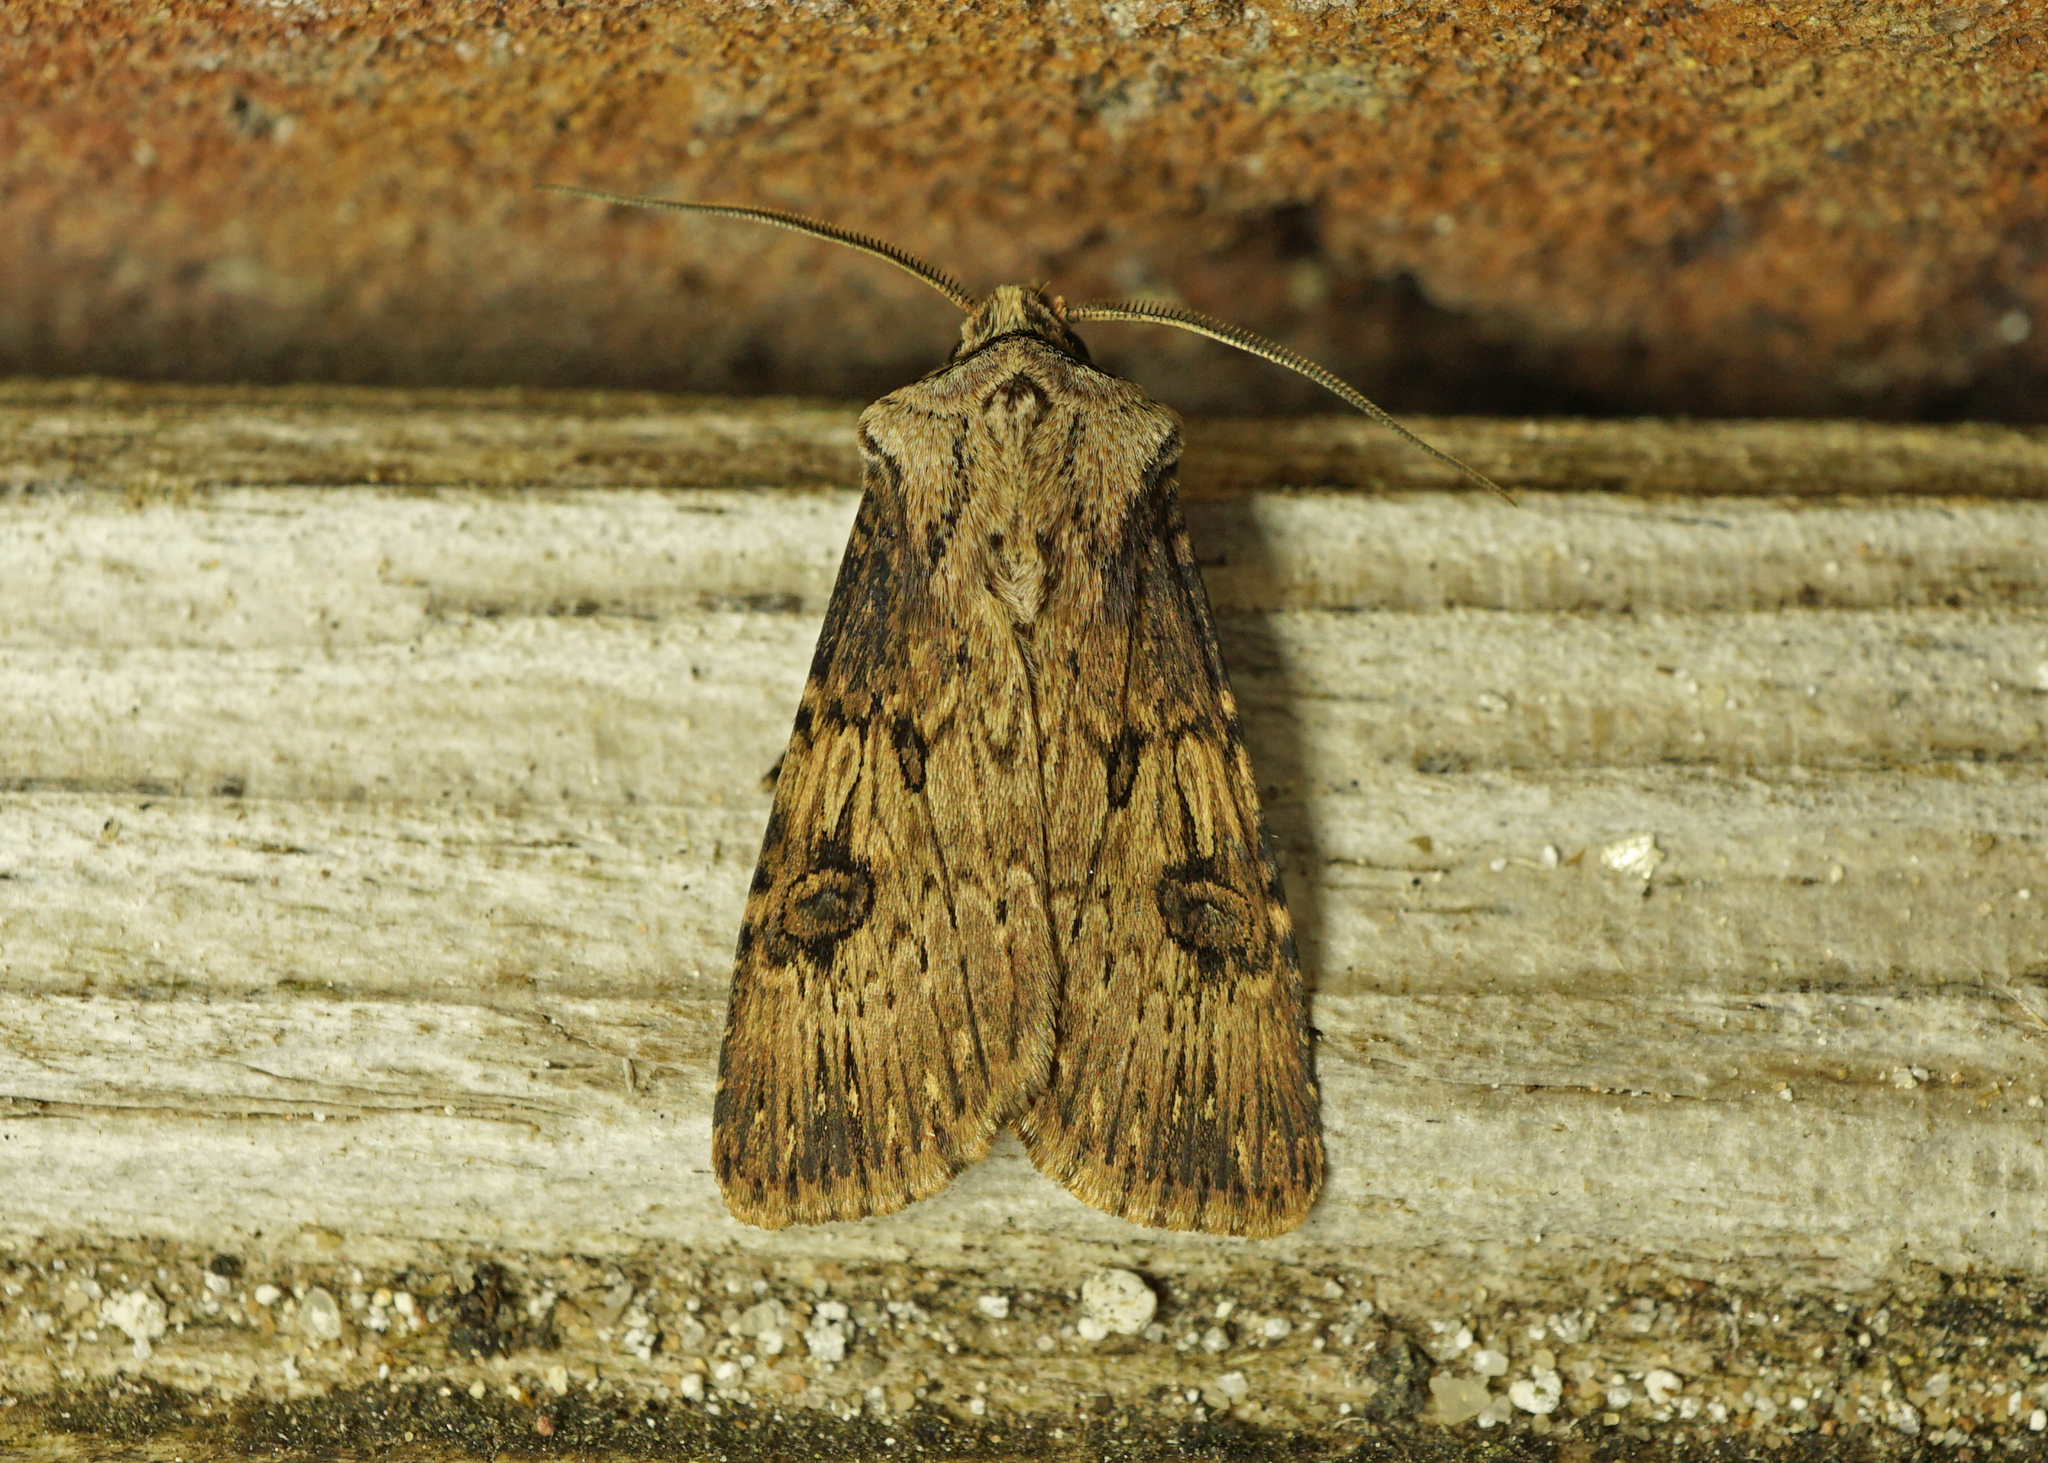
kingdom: Animalia
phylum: Arthropoda
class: Insecta
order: Lepidoptera
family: Noctuidae
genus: Agrotis
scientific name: Agrotis puta
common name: Shuttle-shaped dart
